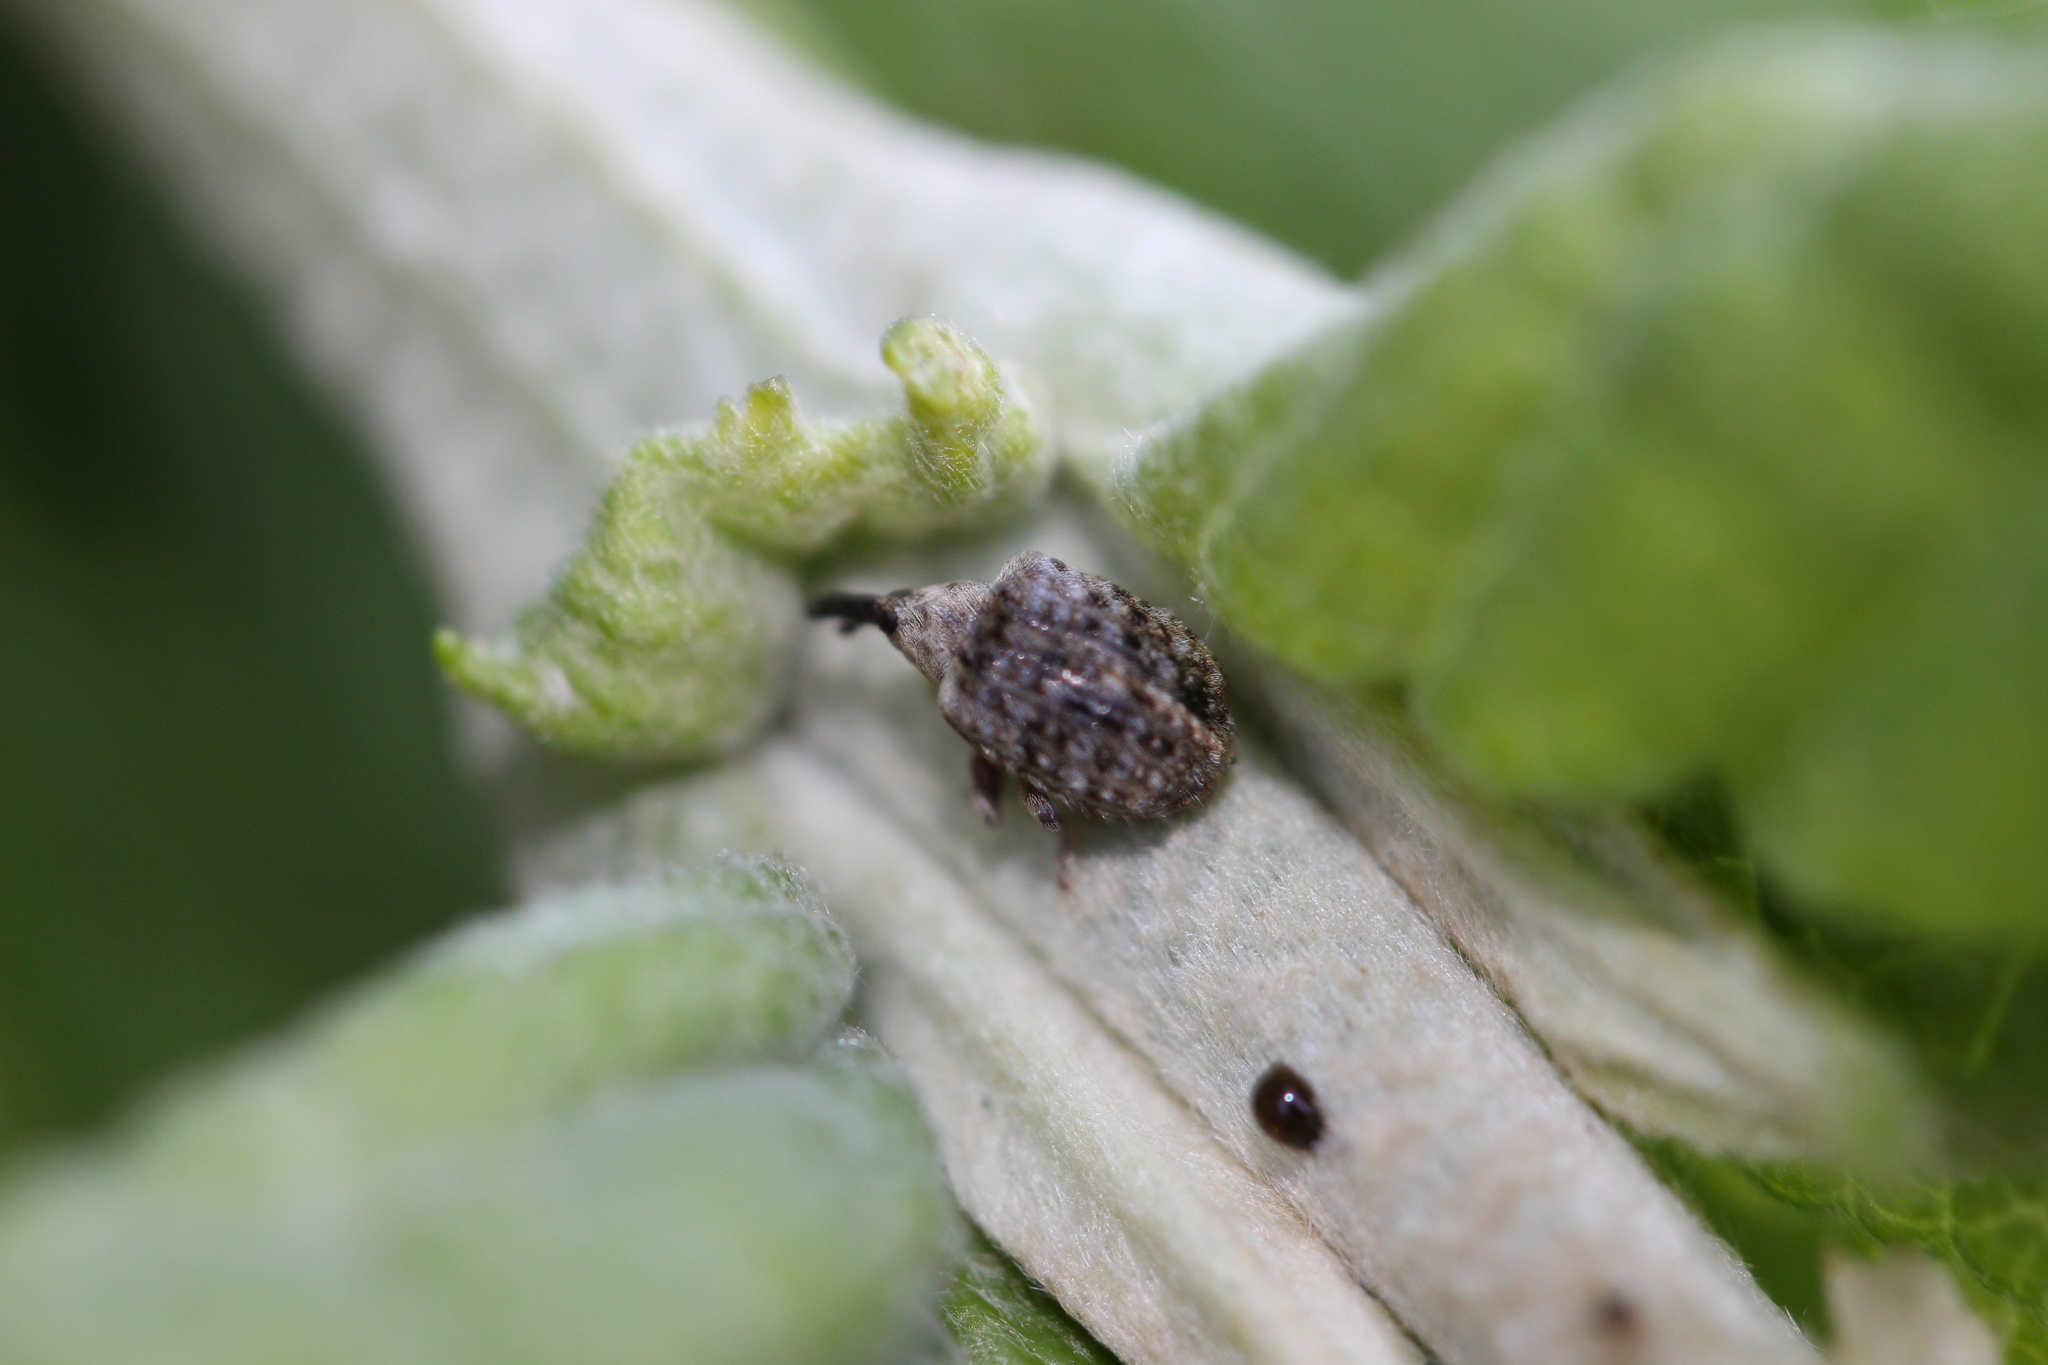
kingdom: Animalia
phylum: Arthropoda
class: Insecta
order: Coleoptera
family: Curculionidae
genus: Cleopus
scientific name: Cleopus japonicus
